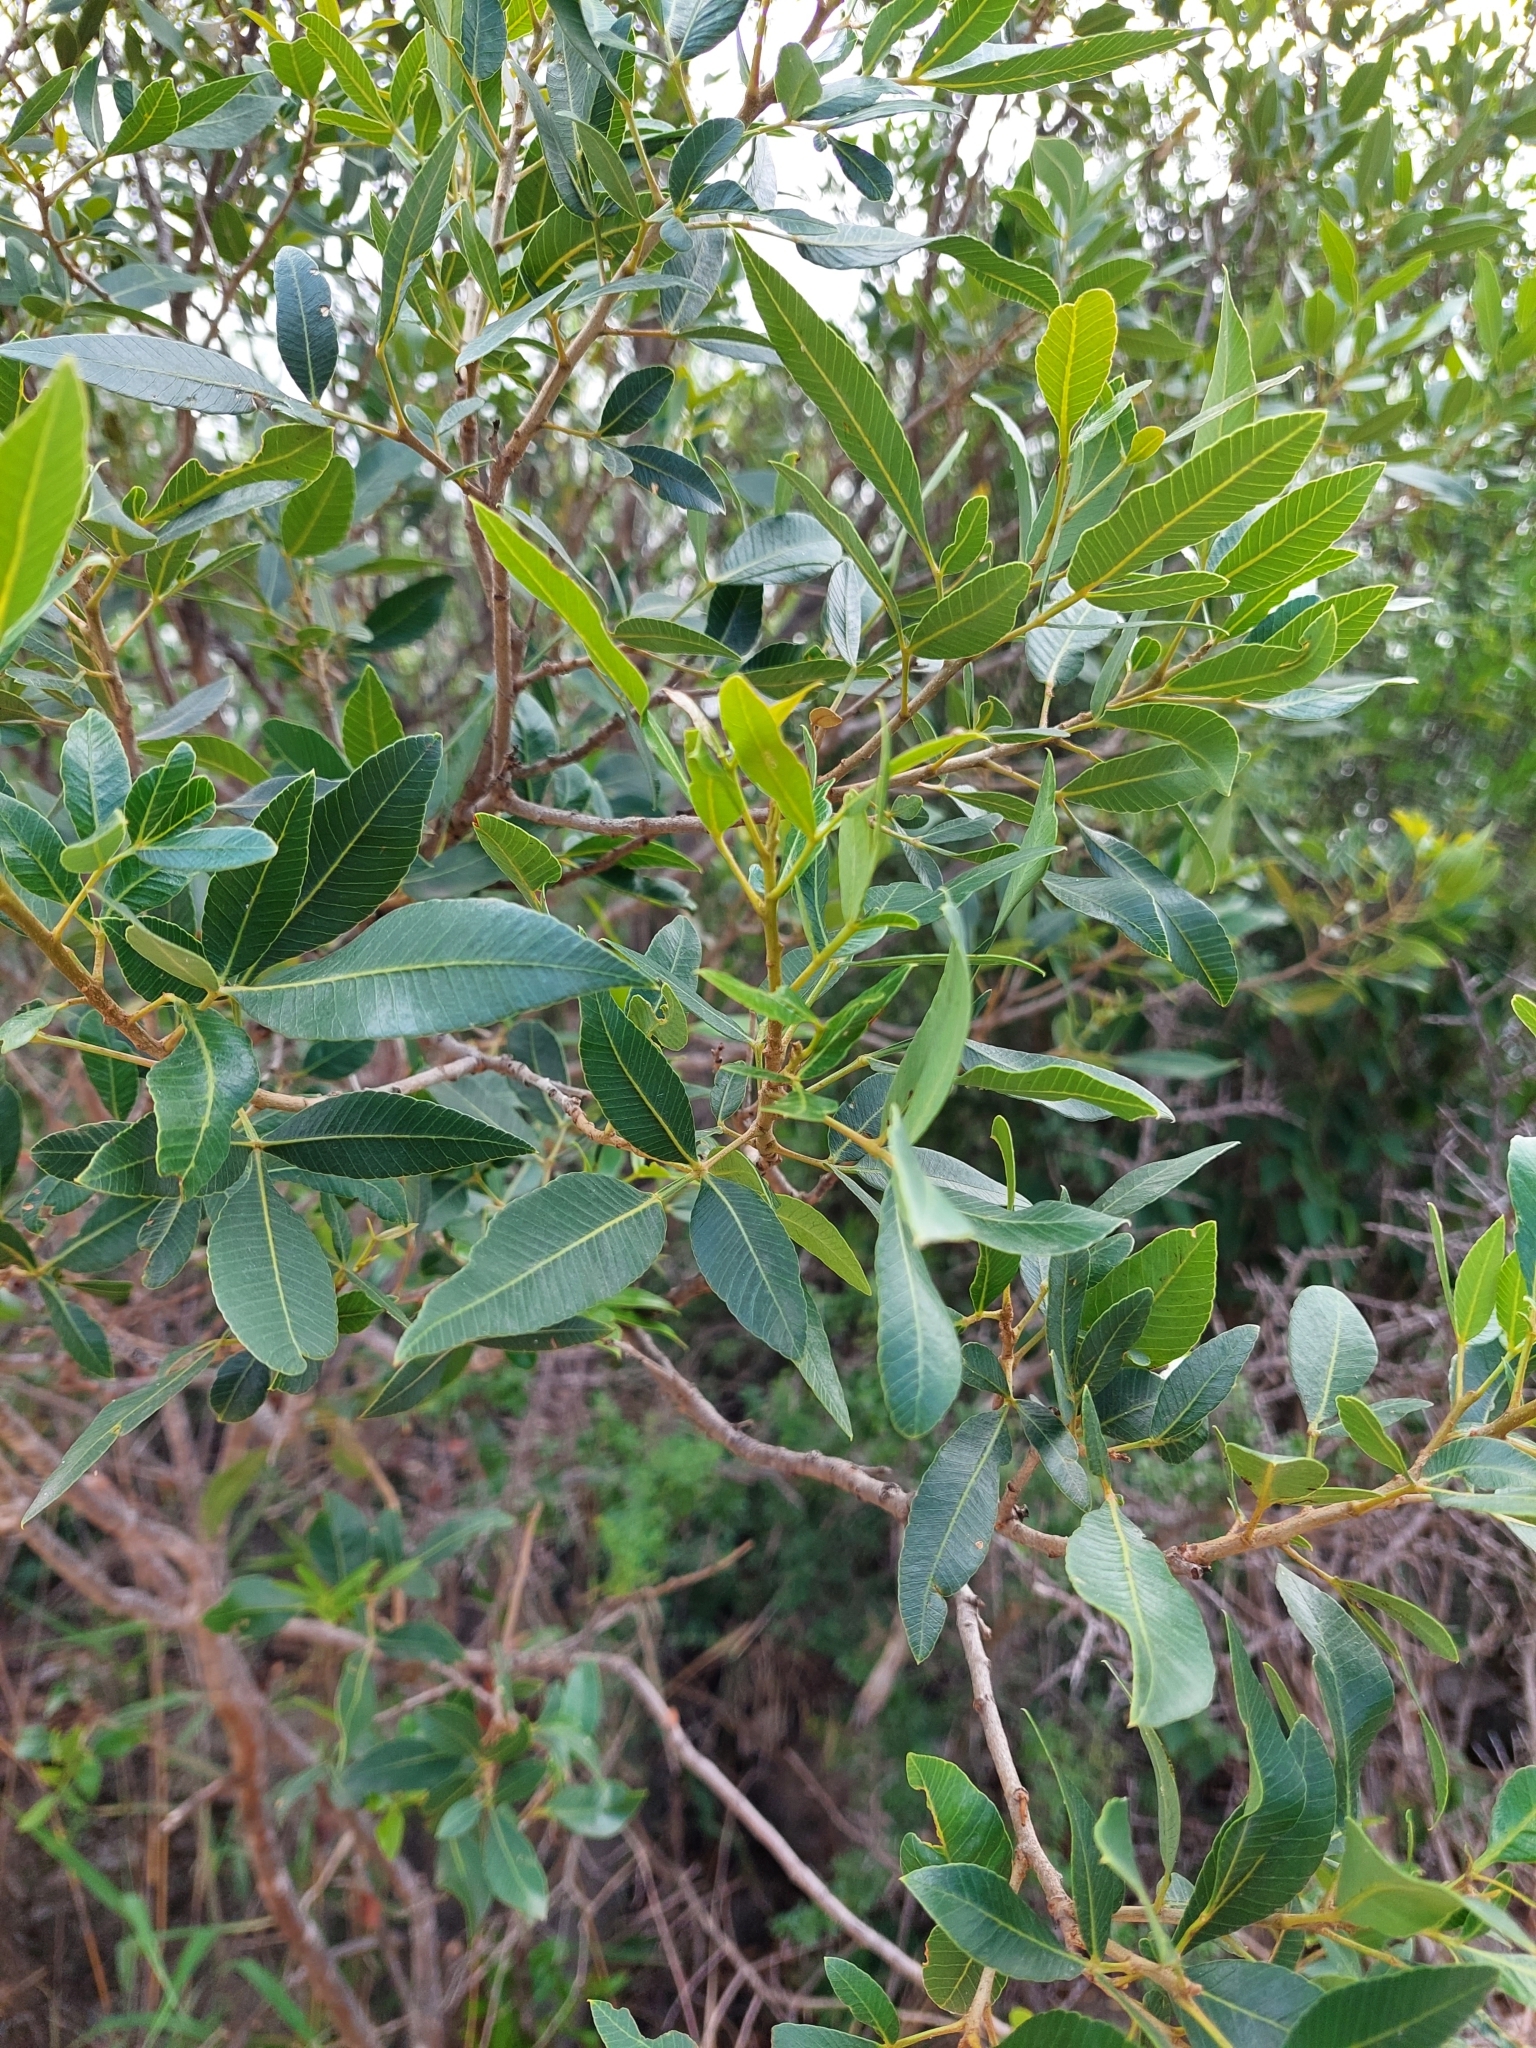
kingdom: Plantae
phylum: Tracheophyta
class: Magnoliopsida
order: Sapindales
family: Anacardiaceae
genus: Lithraea
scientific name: Lithraea molleoides
